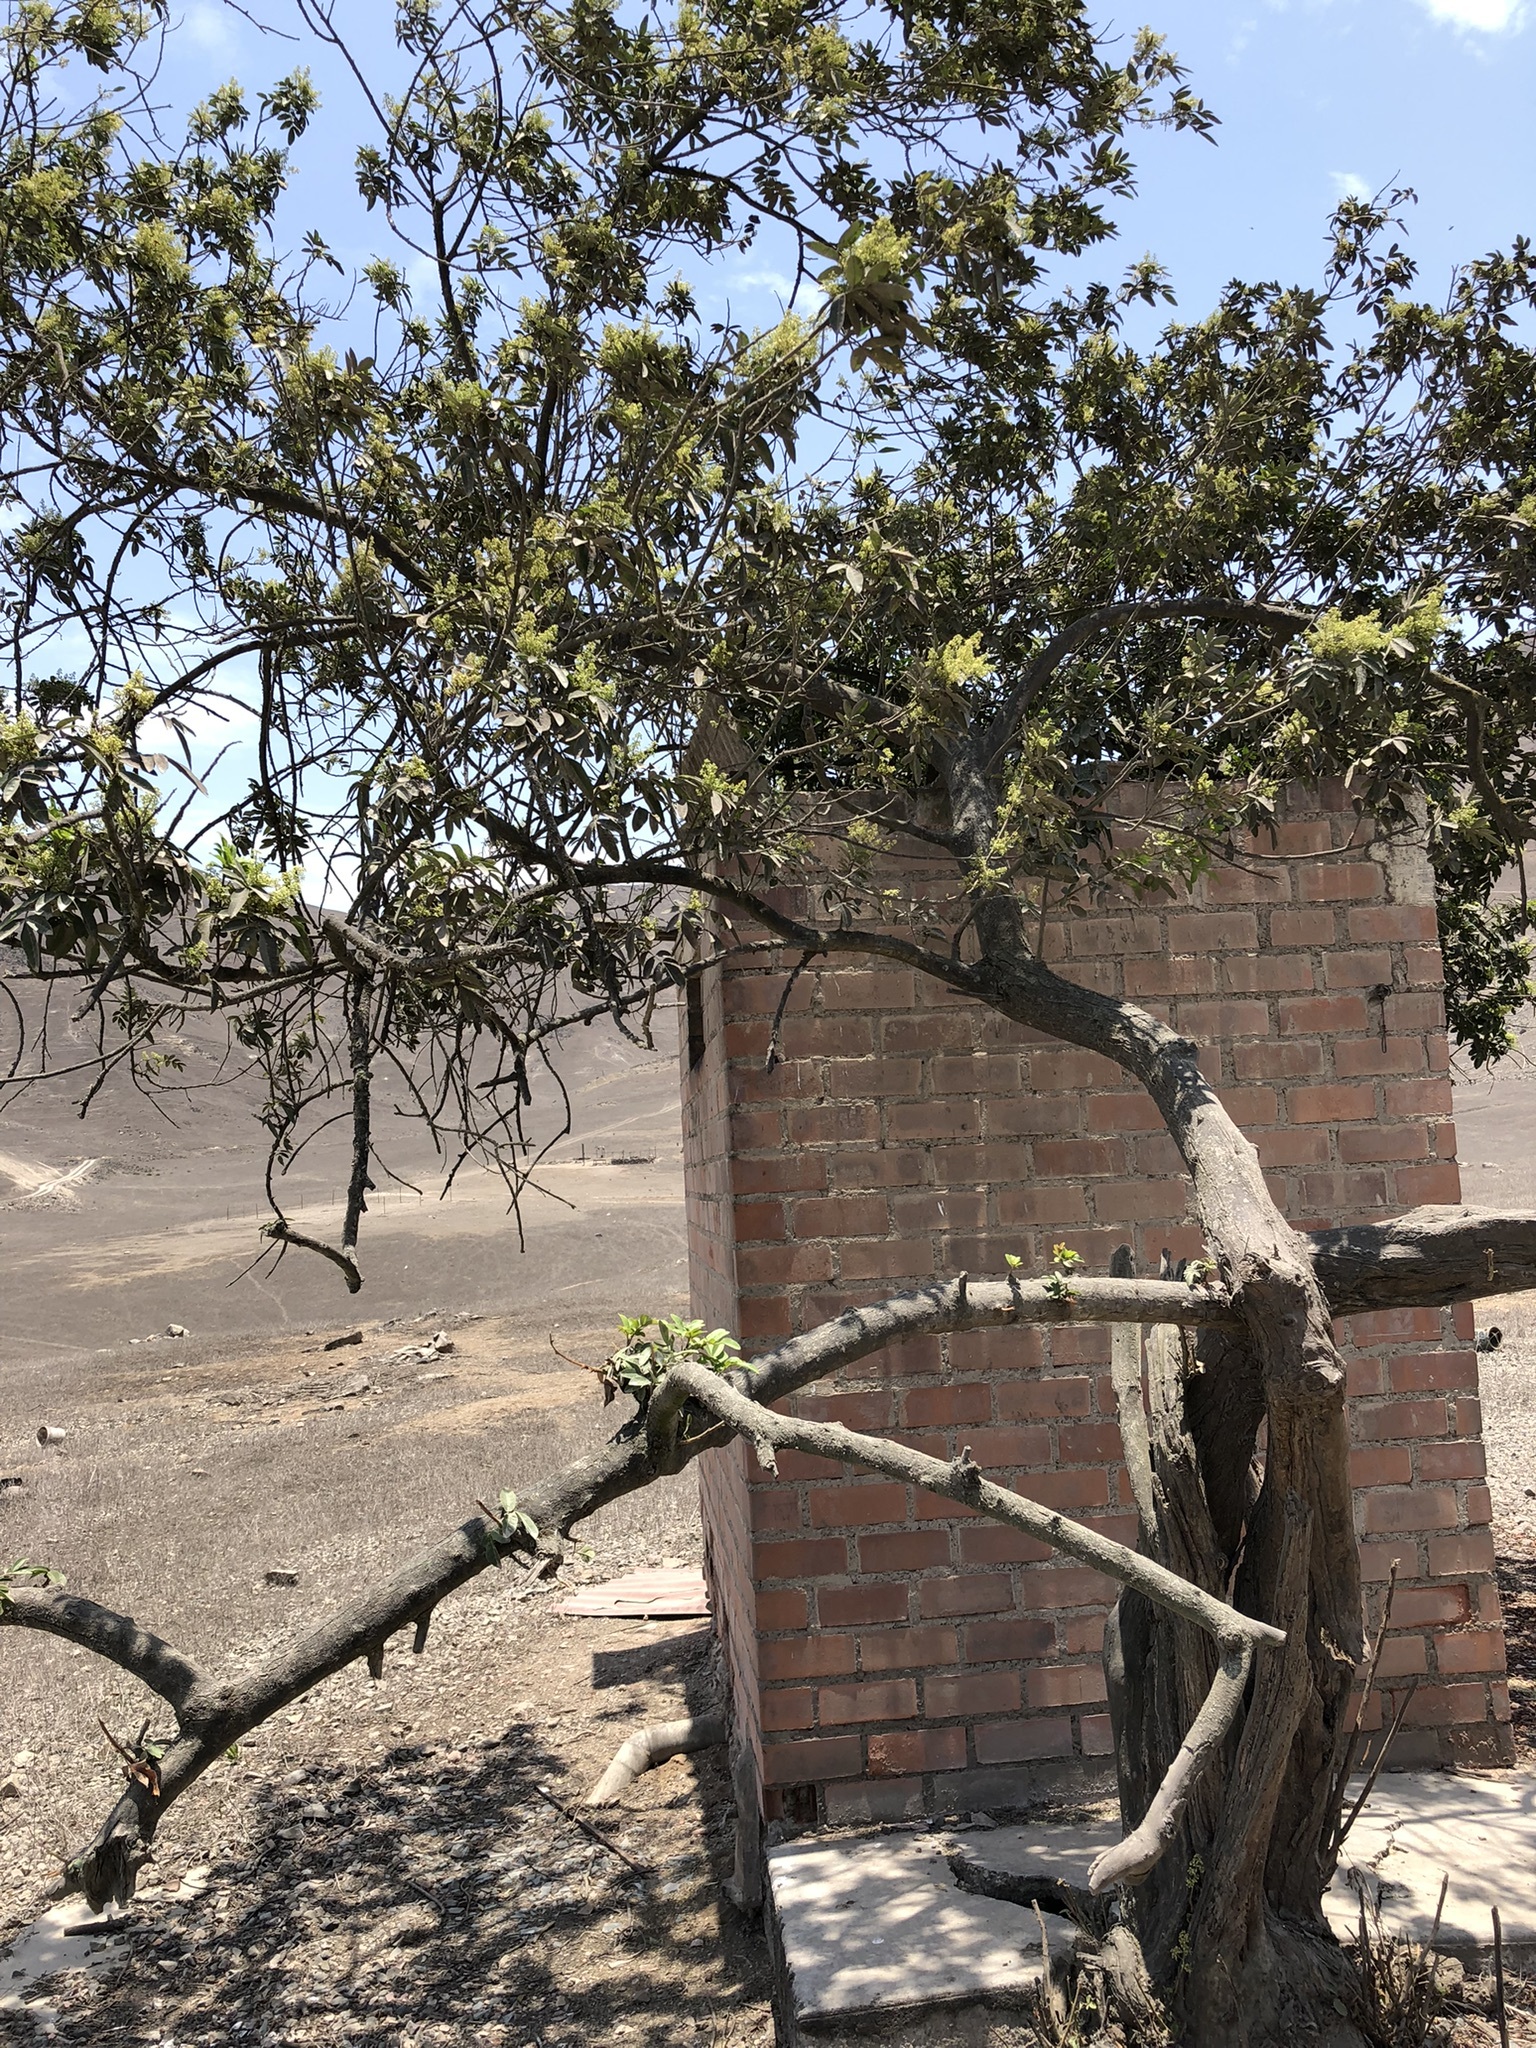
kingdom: Plantae
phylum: Tracheophyta
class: Magnoliopsida
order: Sapindales
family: Anacardiaceae
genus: Schinus
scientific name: Schinus terebinthifolia
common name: Brazilian peppertree
